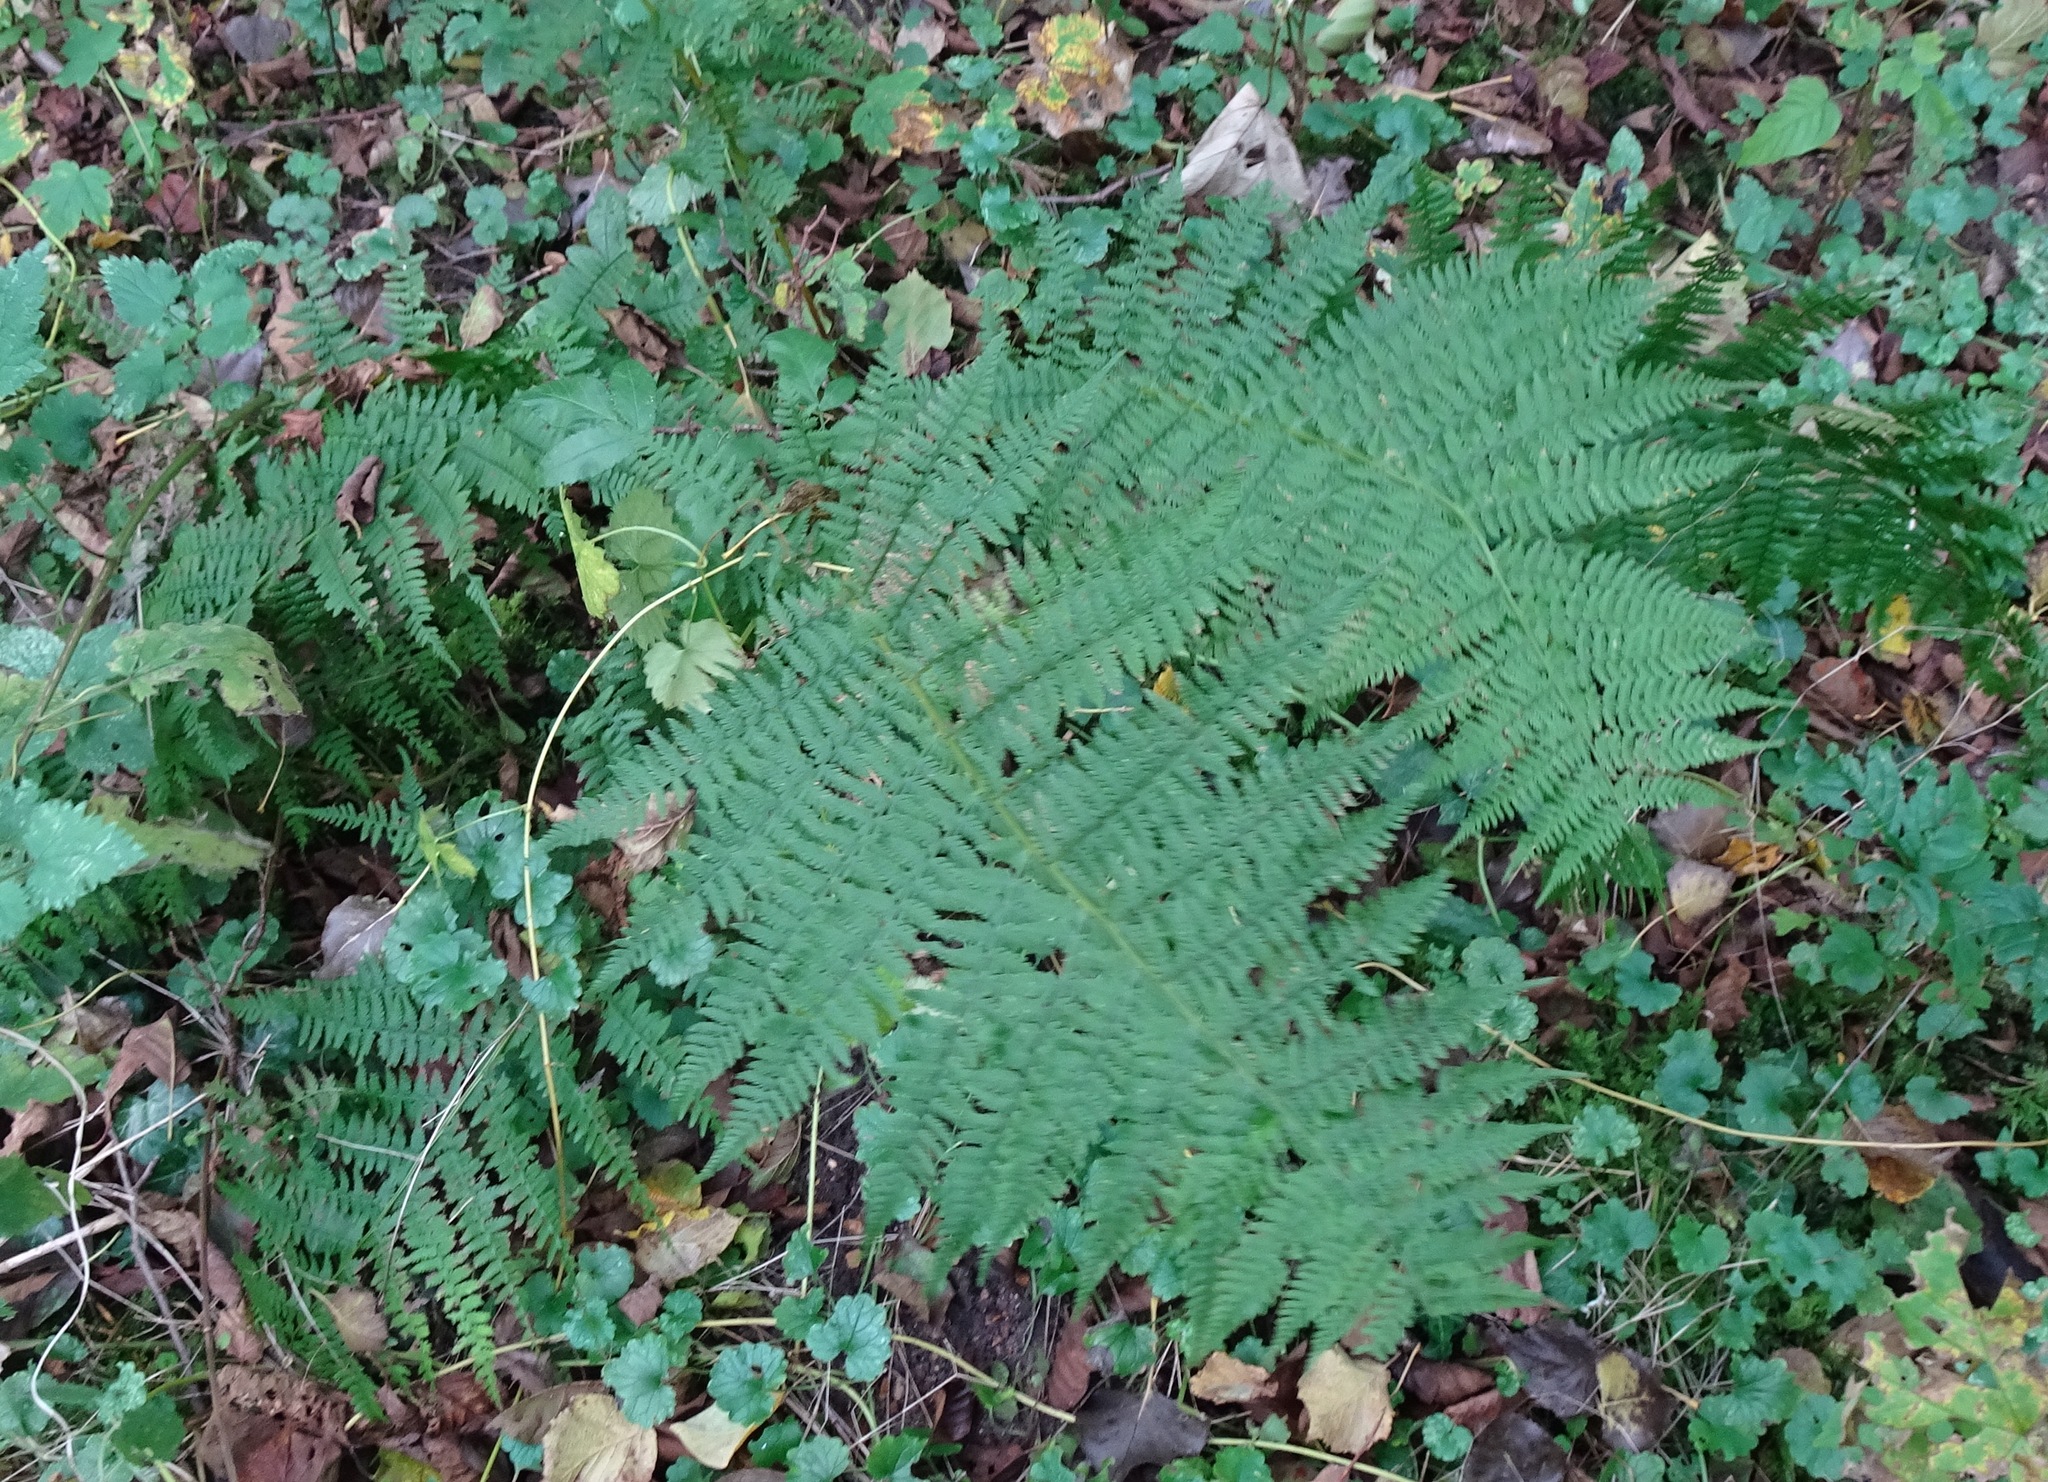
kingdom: Plantae
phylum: Tracheophyta
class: Polypodiopsida
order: Polypodiales
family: Athyriaceae
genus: Athyrium
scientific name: Athyrium filix-femina
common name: Lady fern
